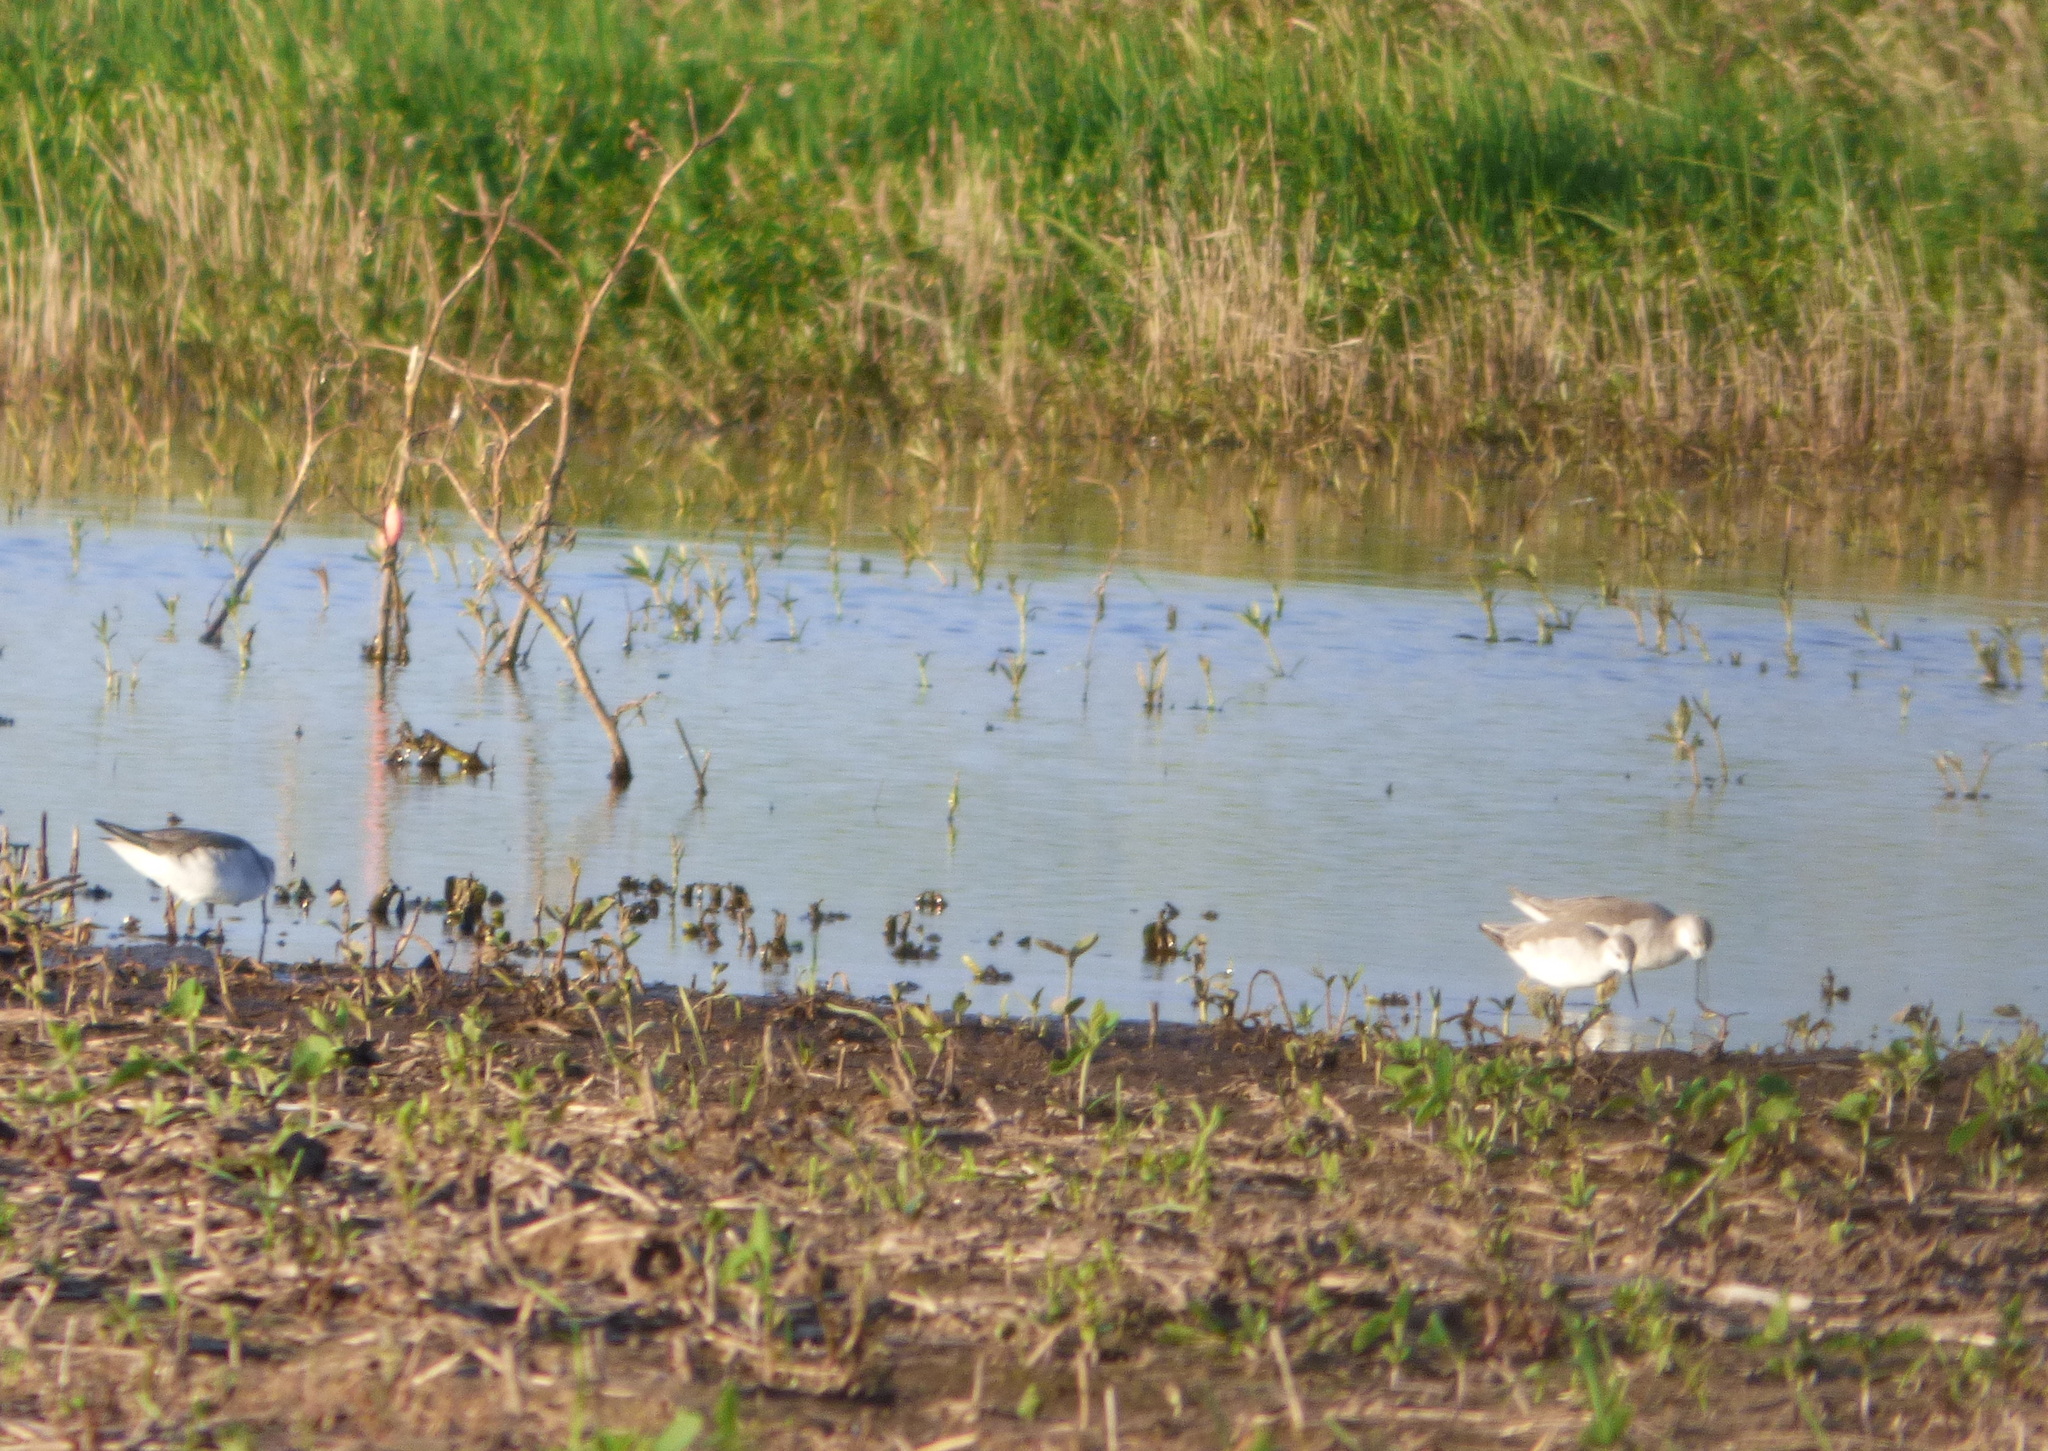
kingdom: Animalia
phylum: Chordata
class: Aves
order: Charadriiformes
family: Scolopacidae
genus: Phalaropus
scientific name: Phalaropus tricolor
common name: Wilson's phalarope
